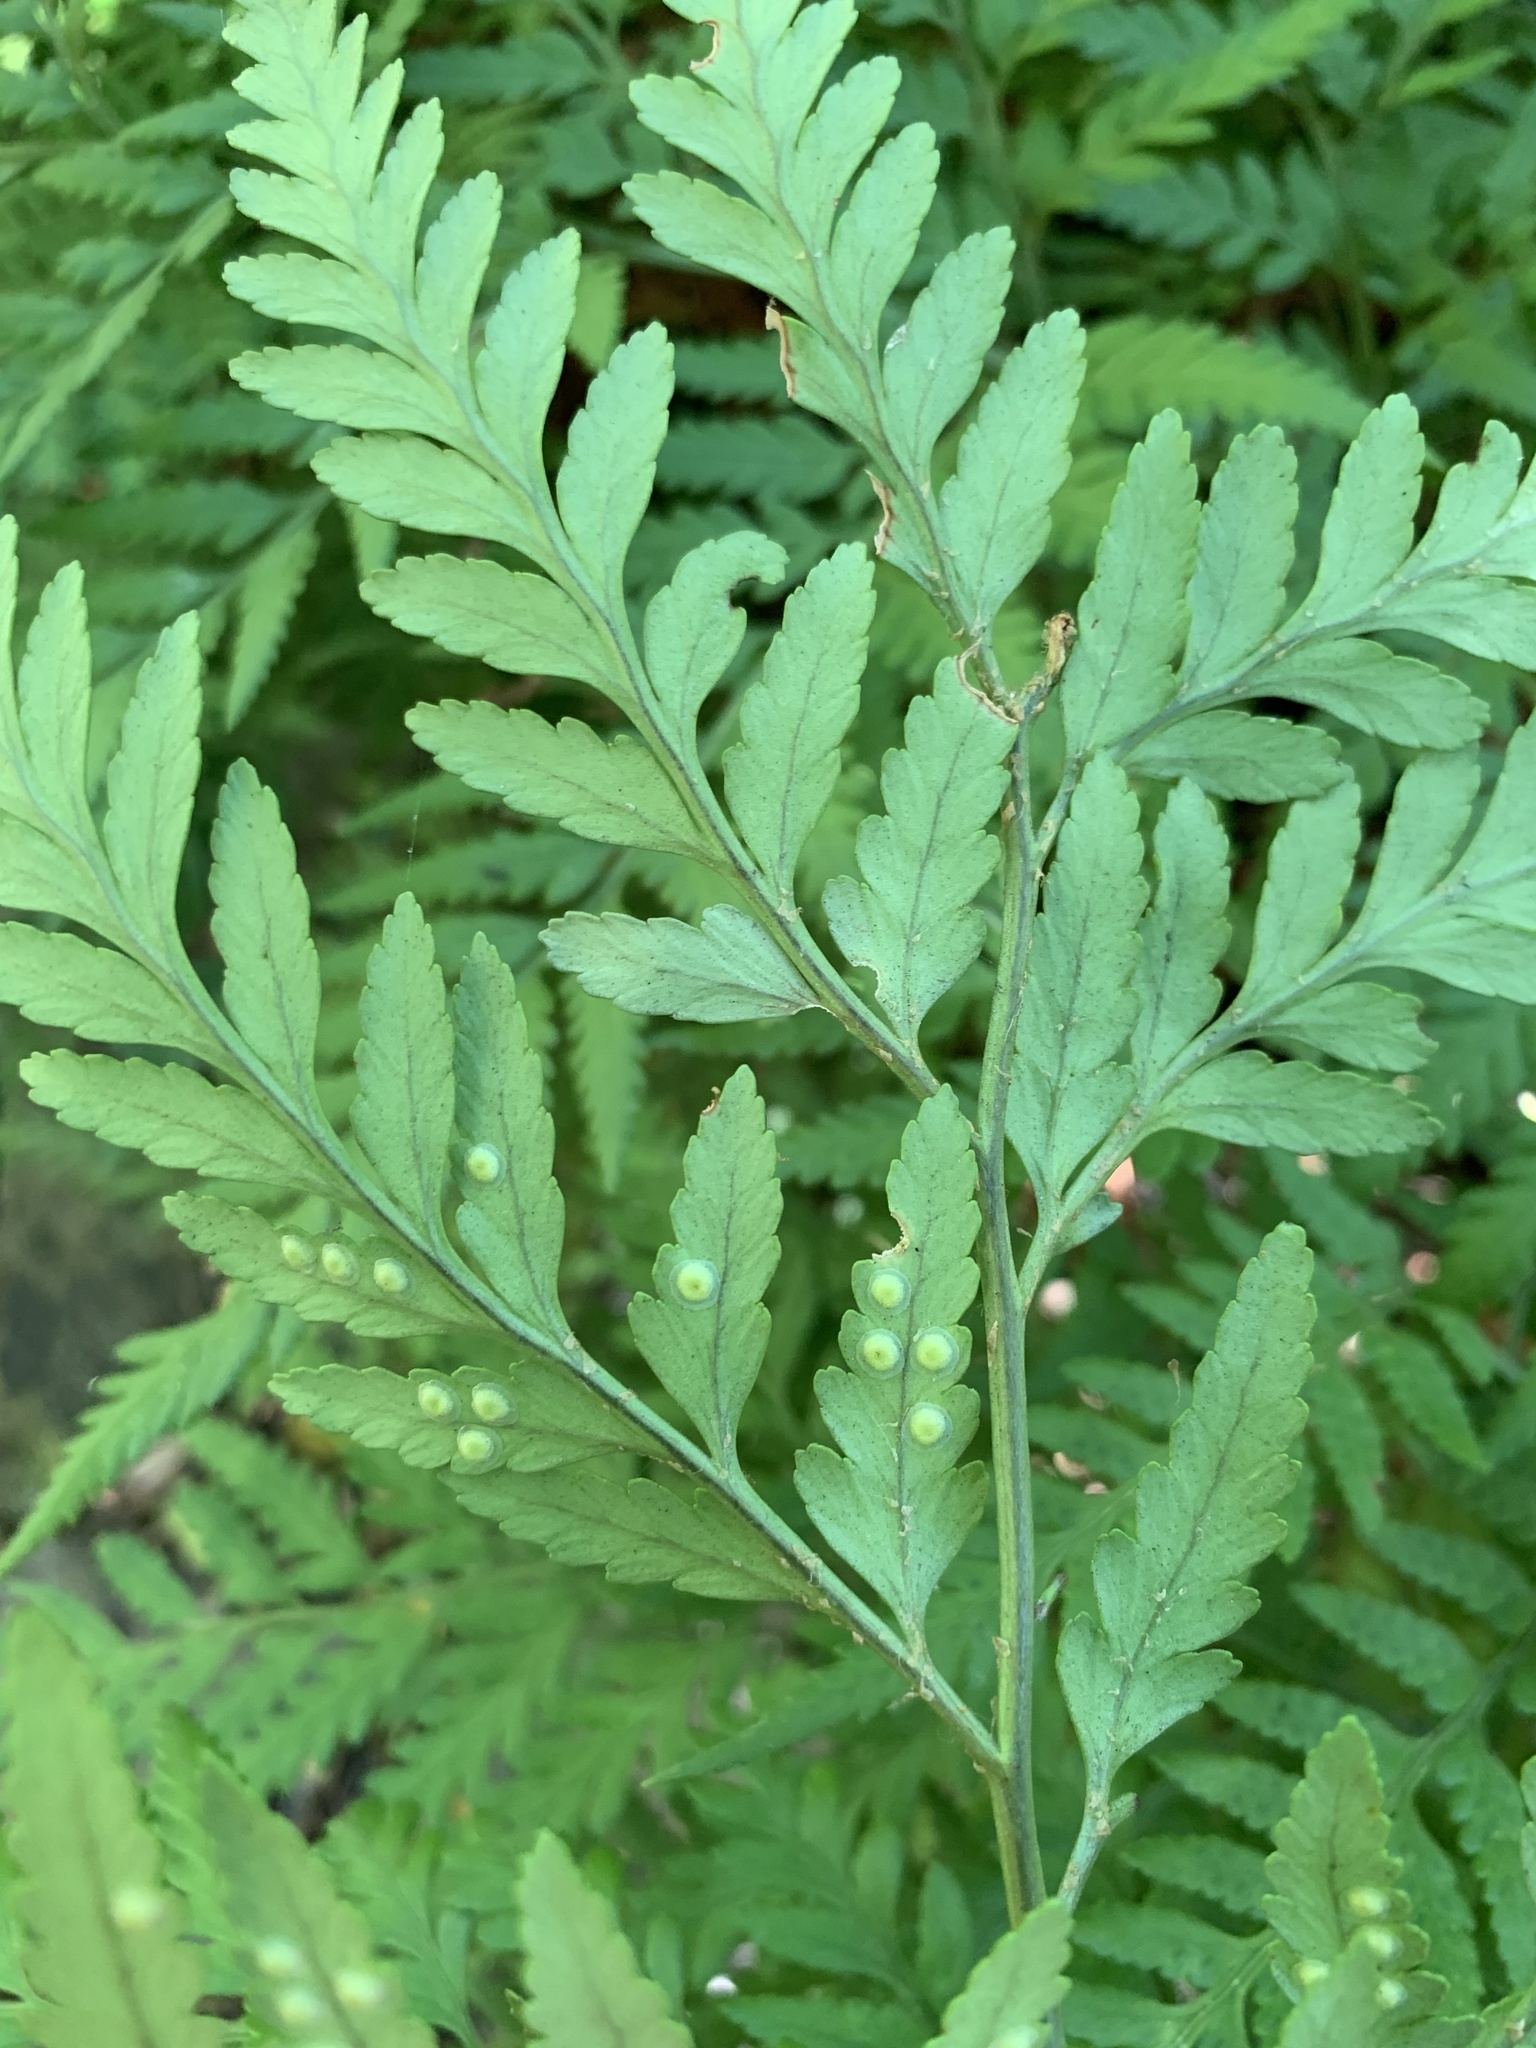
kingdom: Plantae
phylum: Tracheophyta
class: Polypodiopsida
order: Polypodiales
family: Dryopteridaceae
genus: Rumohra
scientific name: Rumohra adiantiformis
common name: Leather fern
